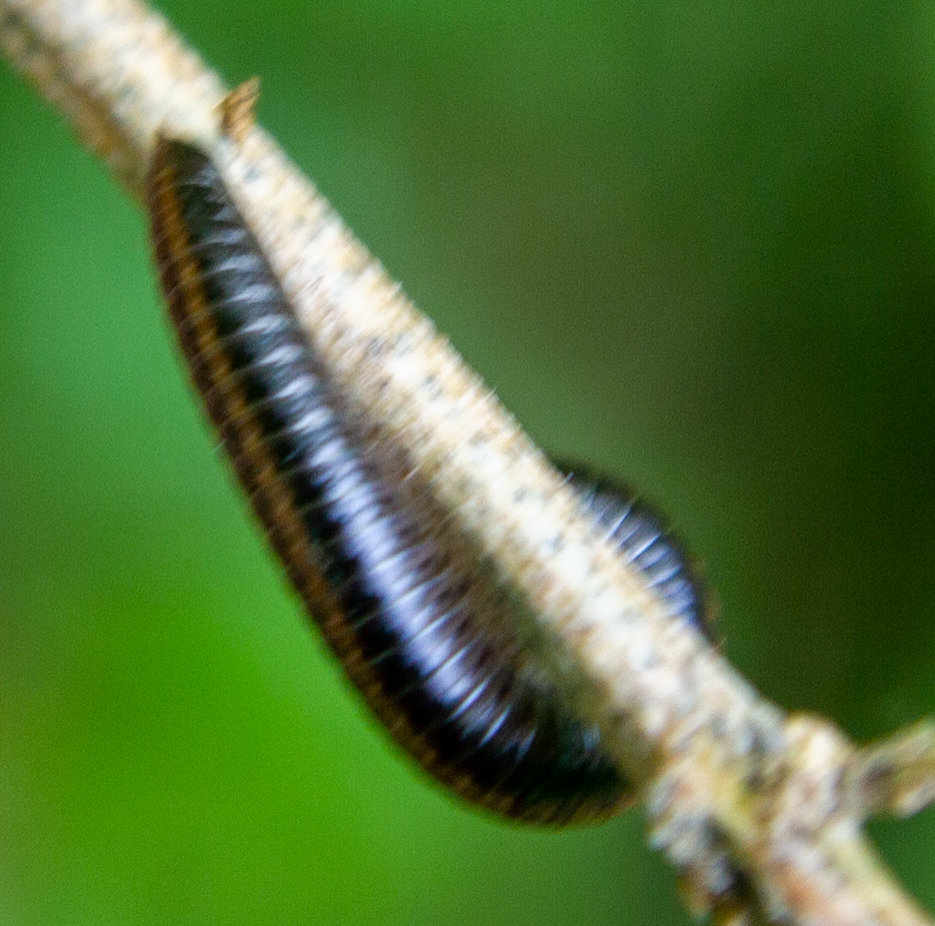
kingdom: Animalia
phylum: Arthropoda
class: Diplopoda
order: Julida
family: Julidae
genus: Ommatoiulus
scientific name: Ommatoiulus sabulosus
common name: Striped millipede
